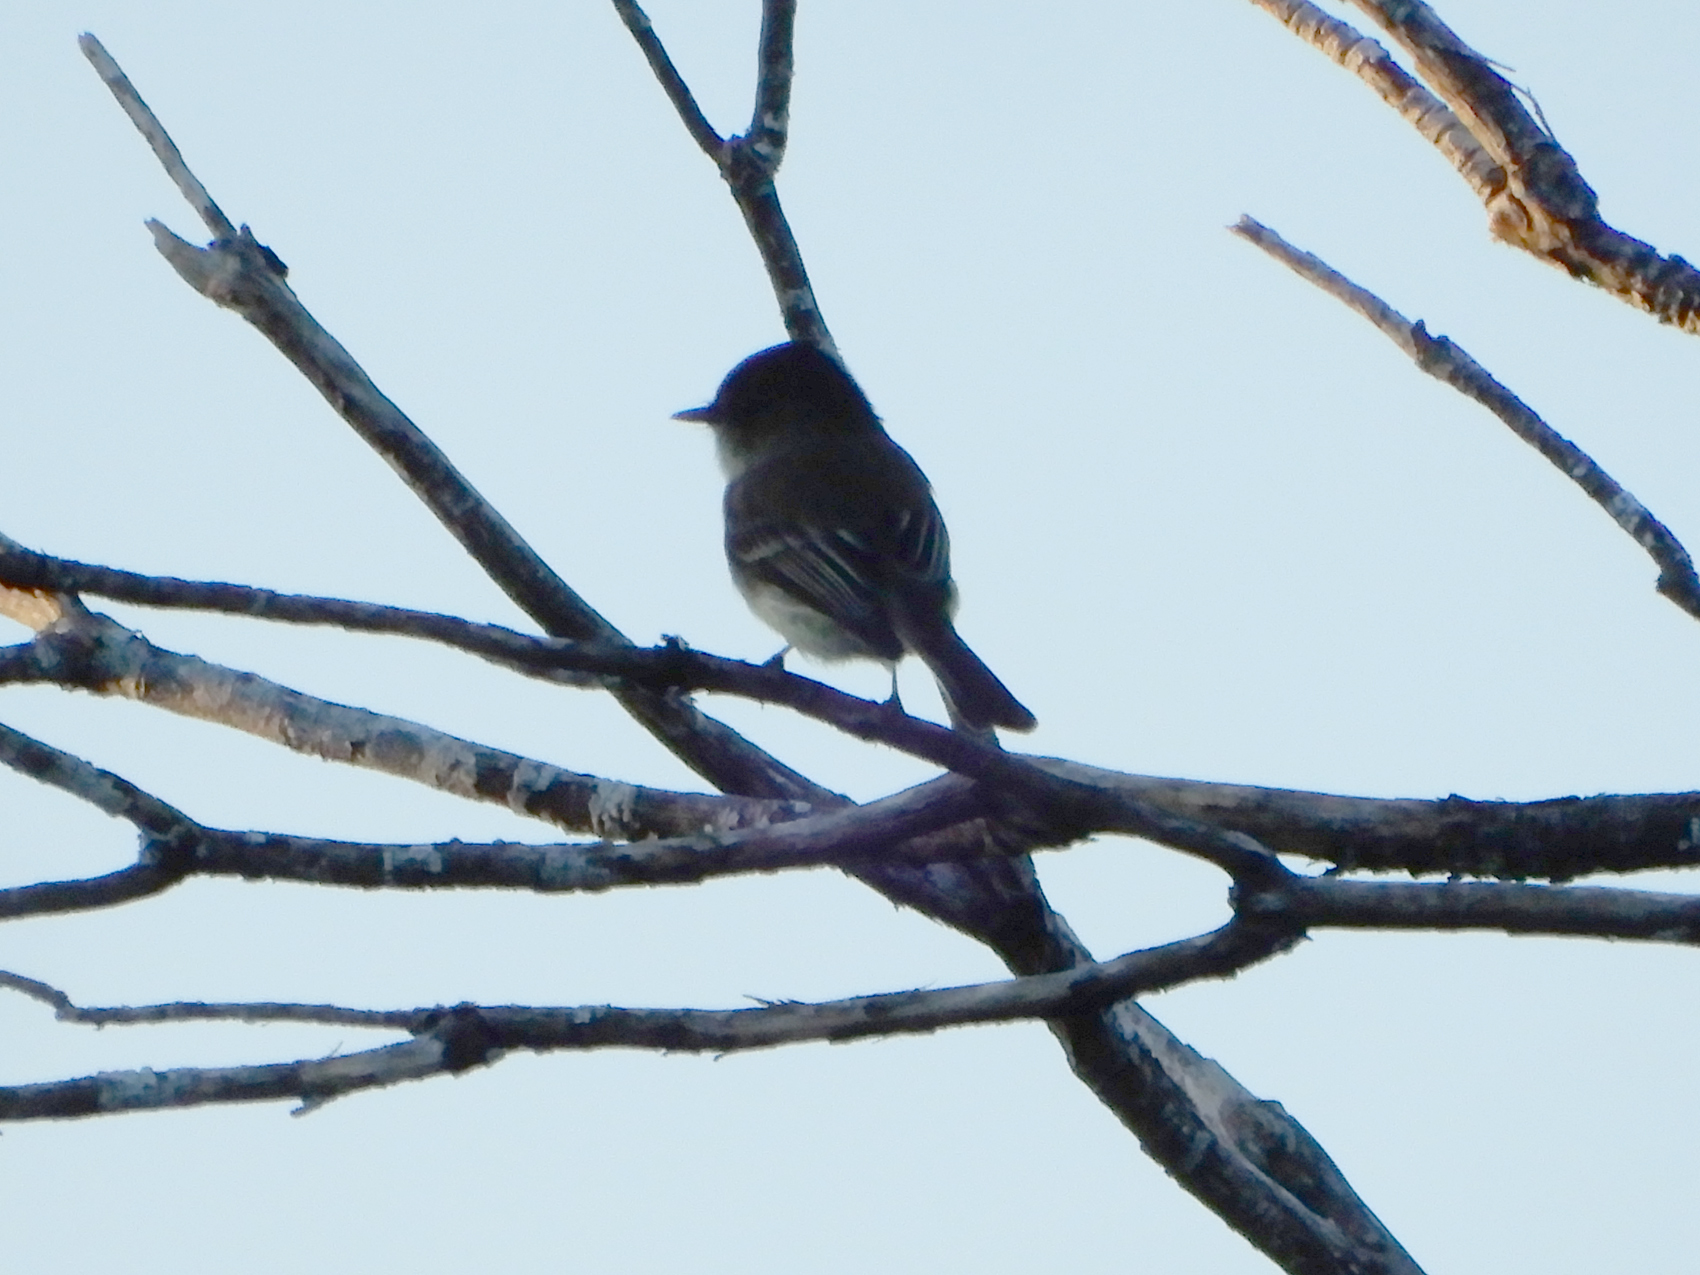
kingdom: Animalia
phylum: Chordata
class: Aves
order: Passeriformes
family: Tyrannidae
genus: Sayornis
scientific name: Sayornis phoebe
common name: Eastern phoebe
